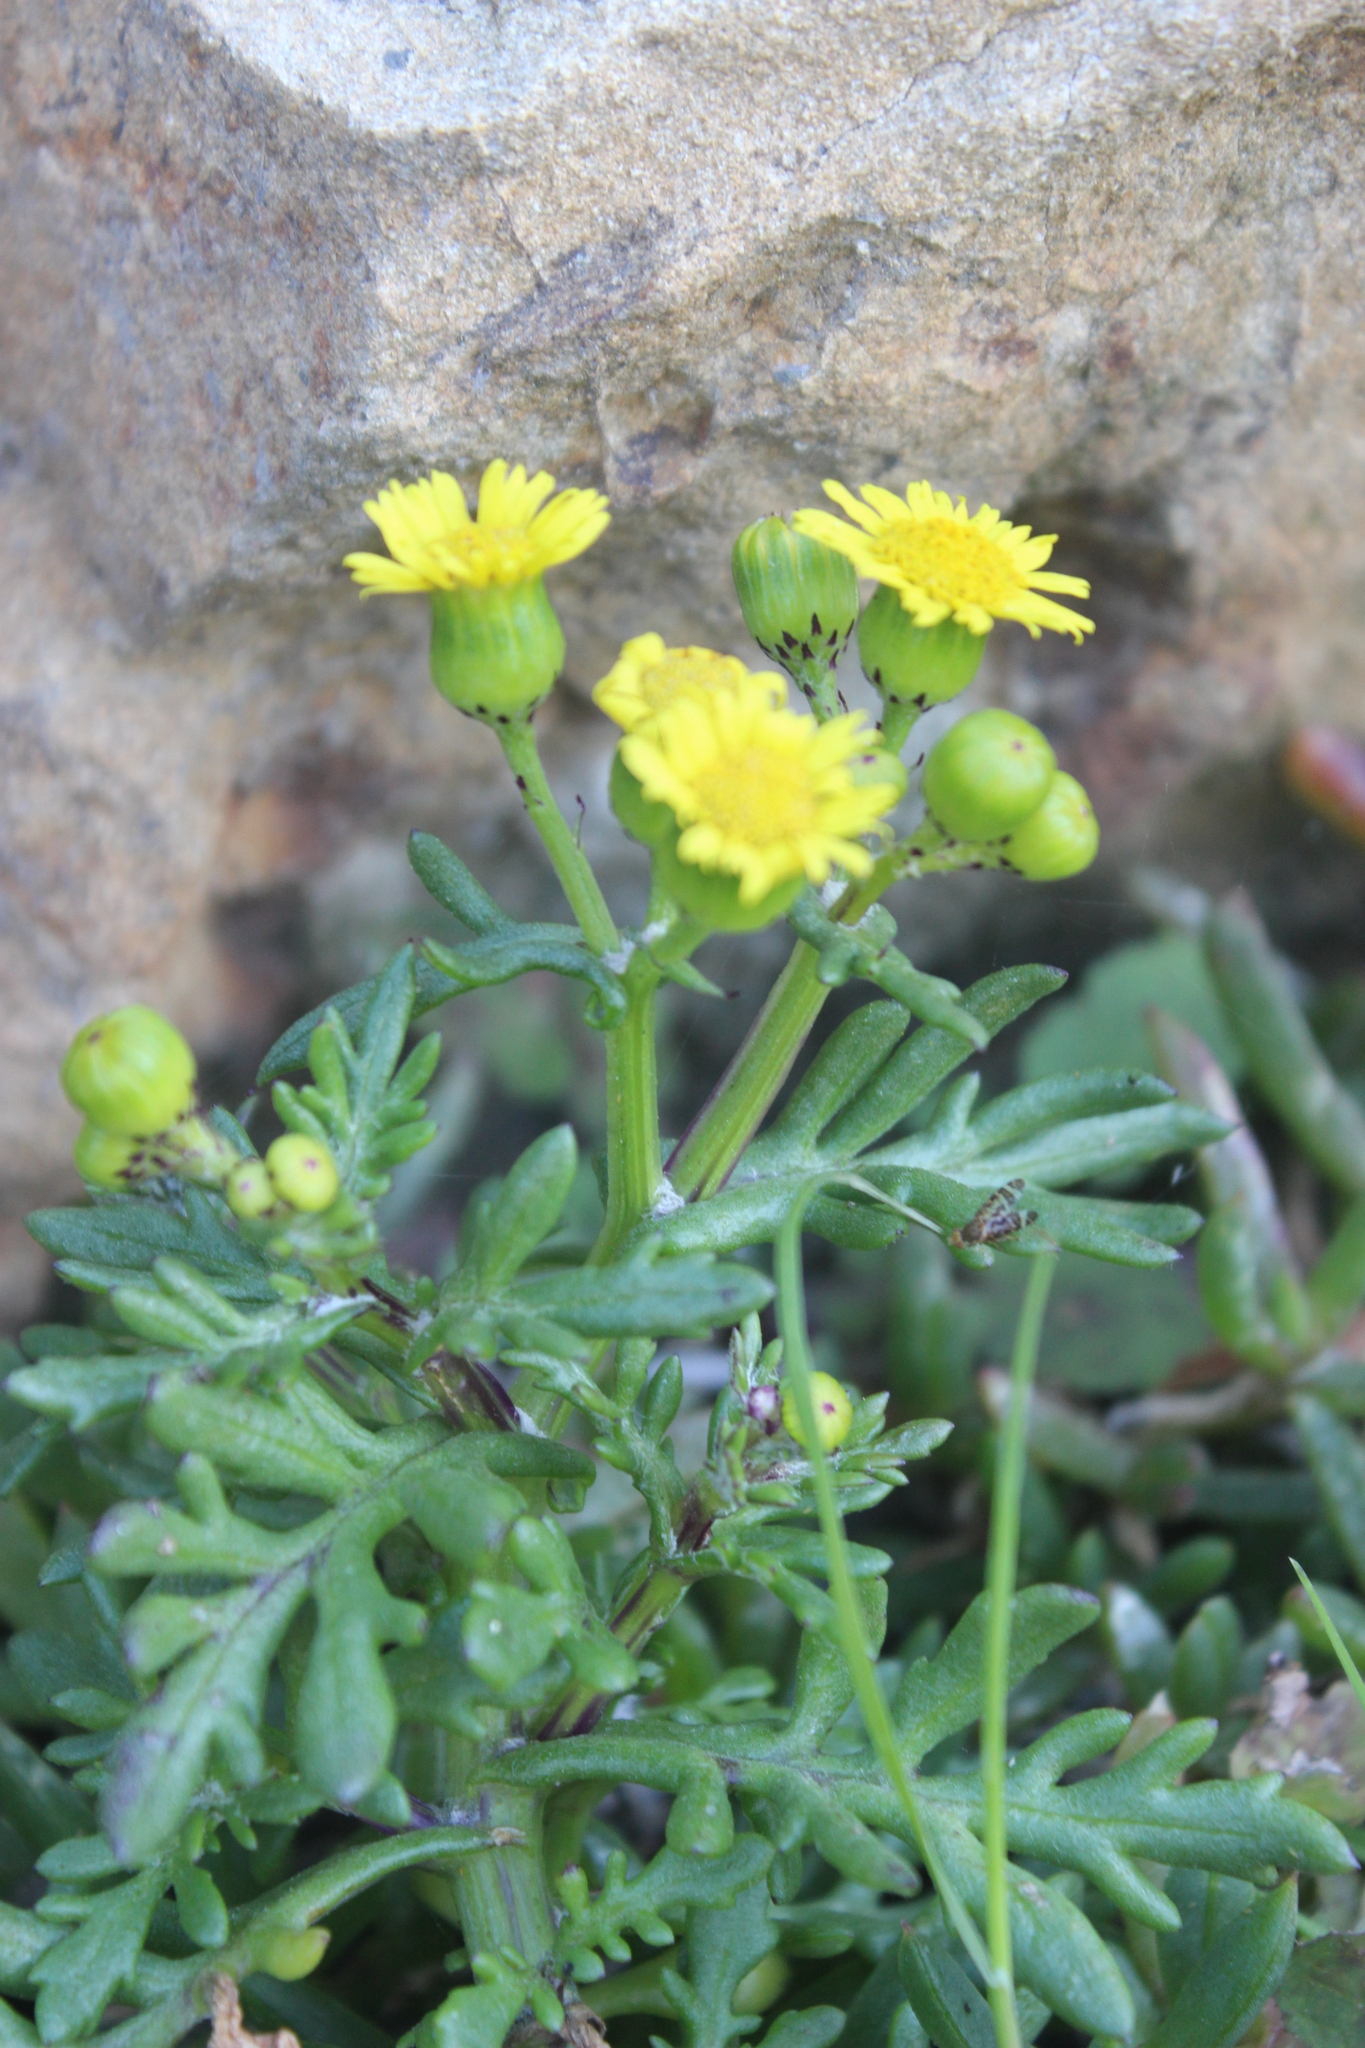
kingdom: Plantae
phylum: Tracheophyta
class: Magnoliopsida
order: Asterales
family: Asteraceae
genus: Senecio
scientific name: Senecio lautus
